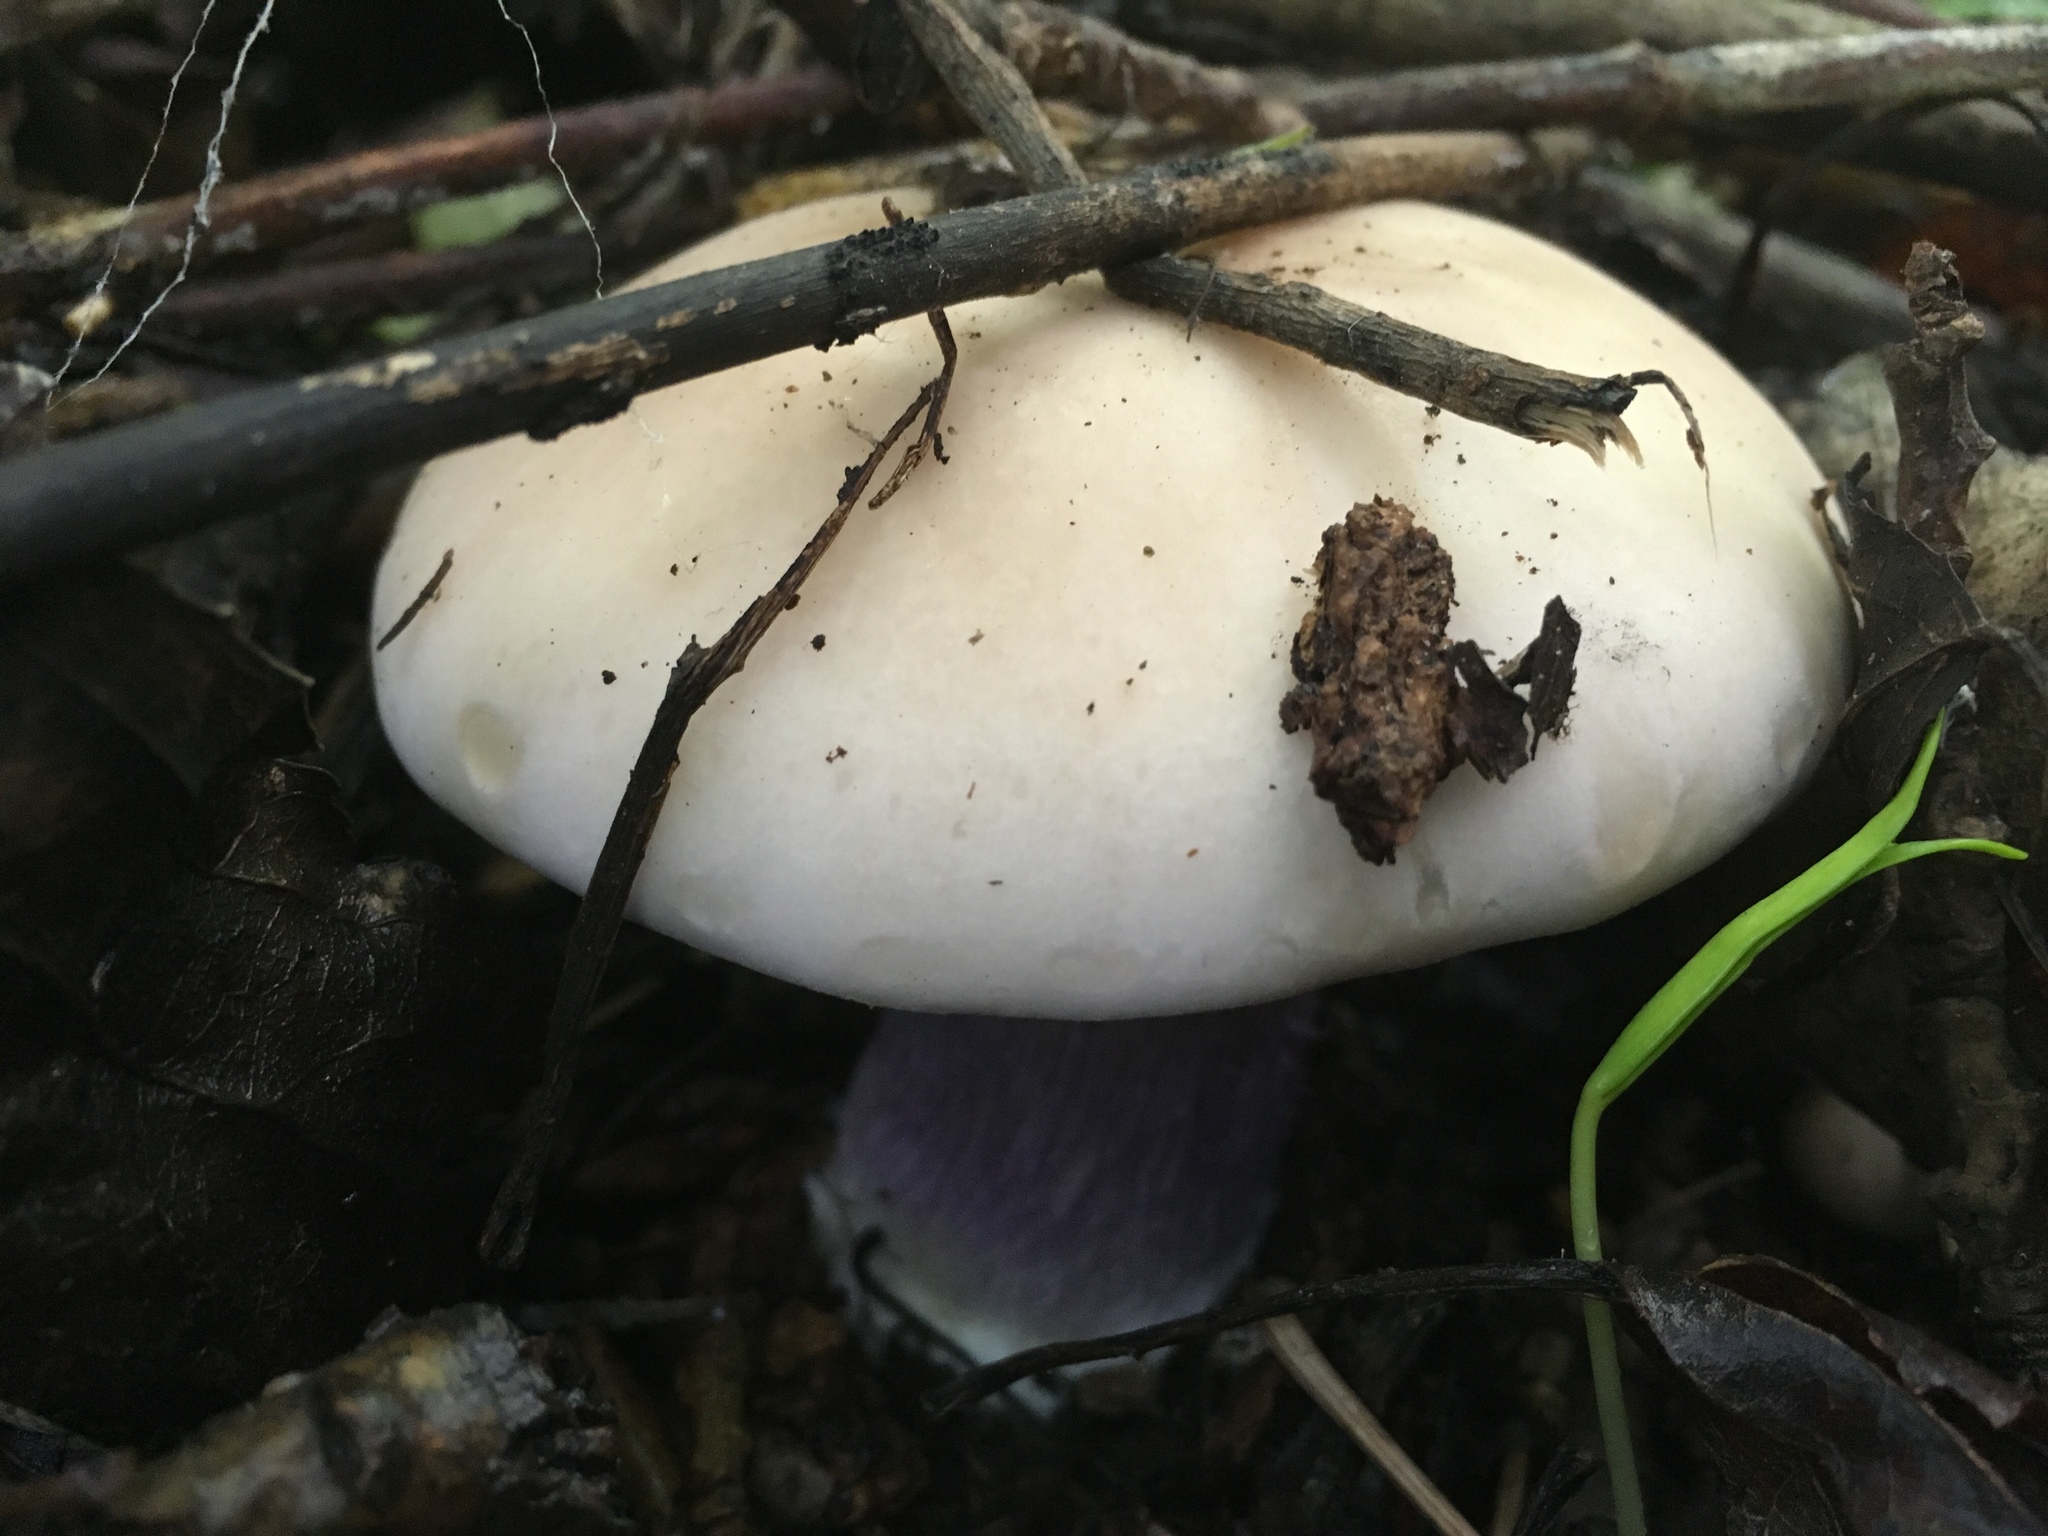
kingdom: Fungi
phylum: Basidiomycota
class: Agaricomycetes
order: Agaricales
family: Omphalotaceae
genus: Collybiopsis
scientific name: Collybiopsis peronata
